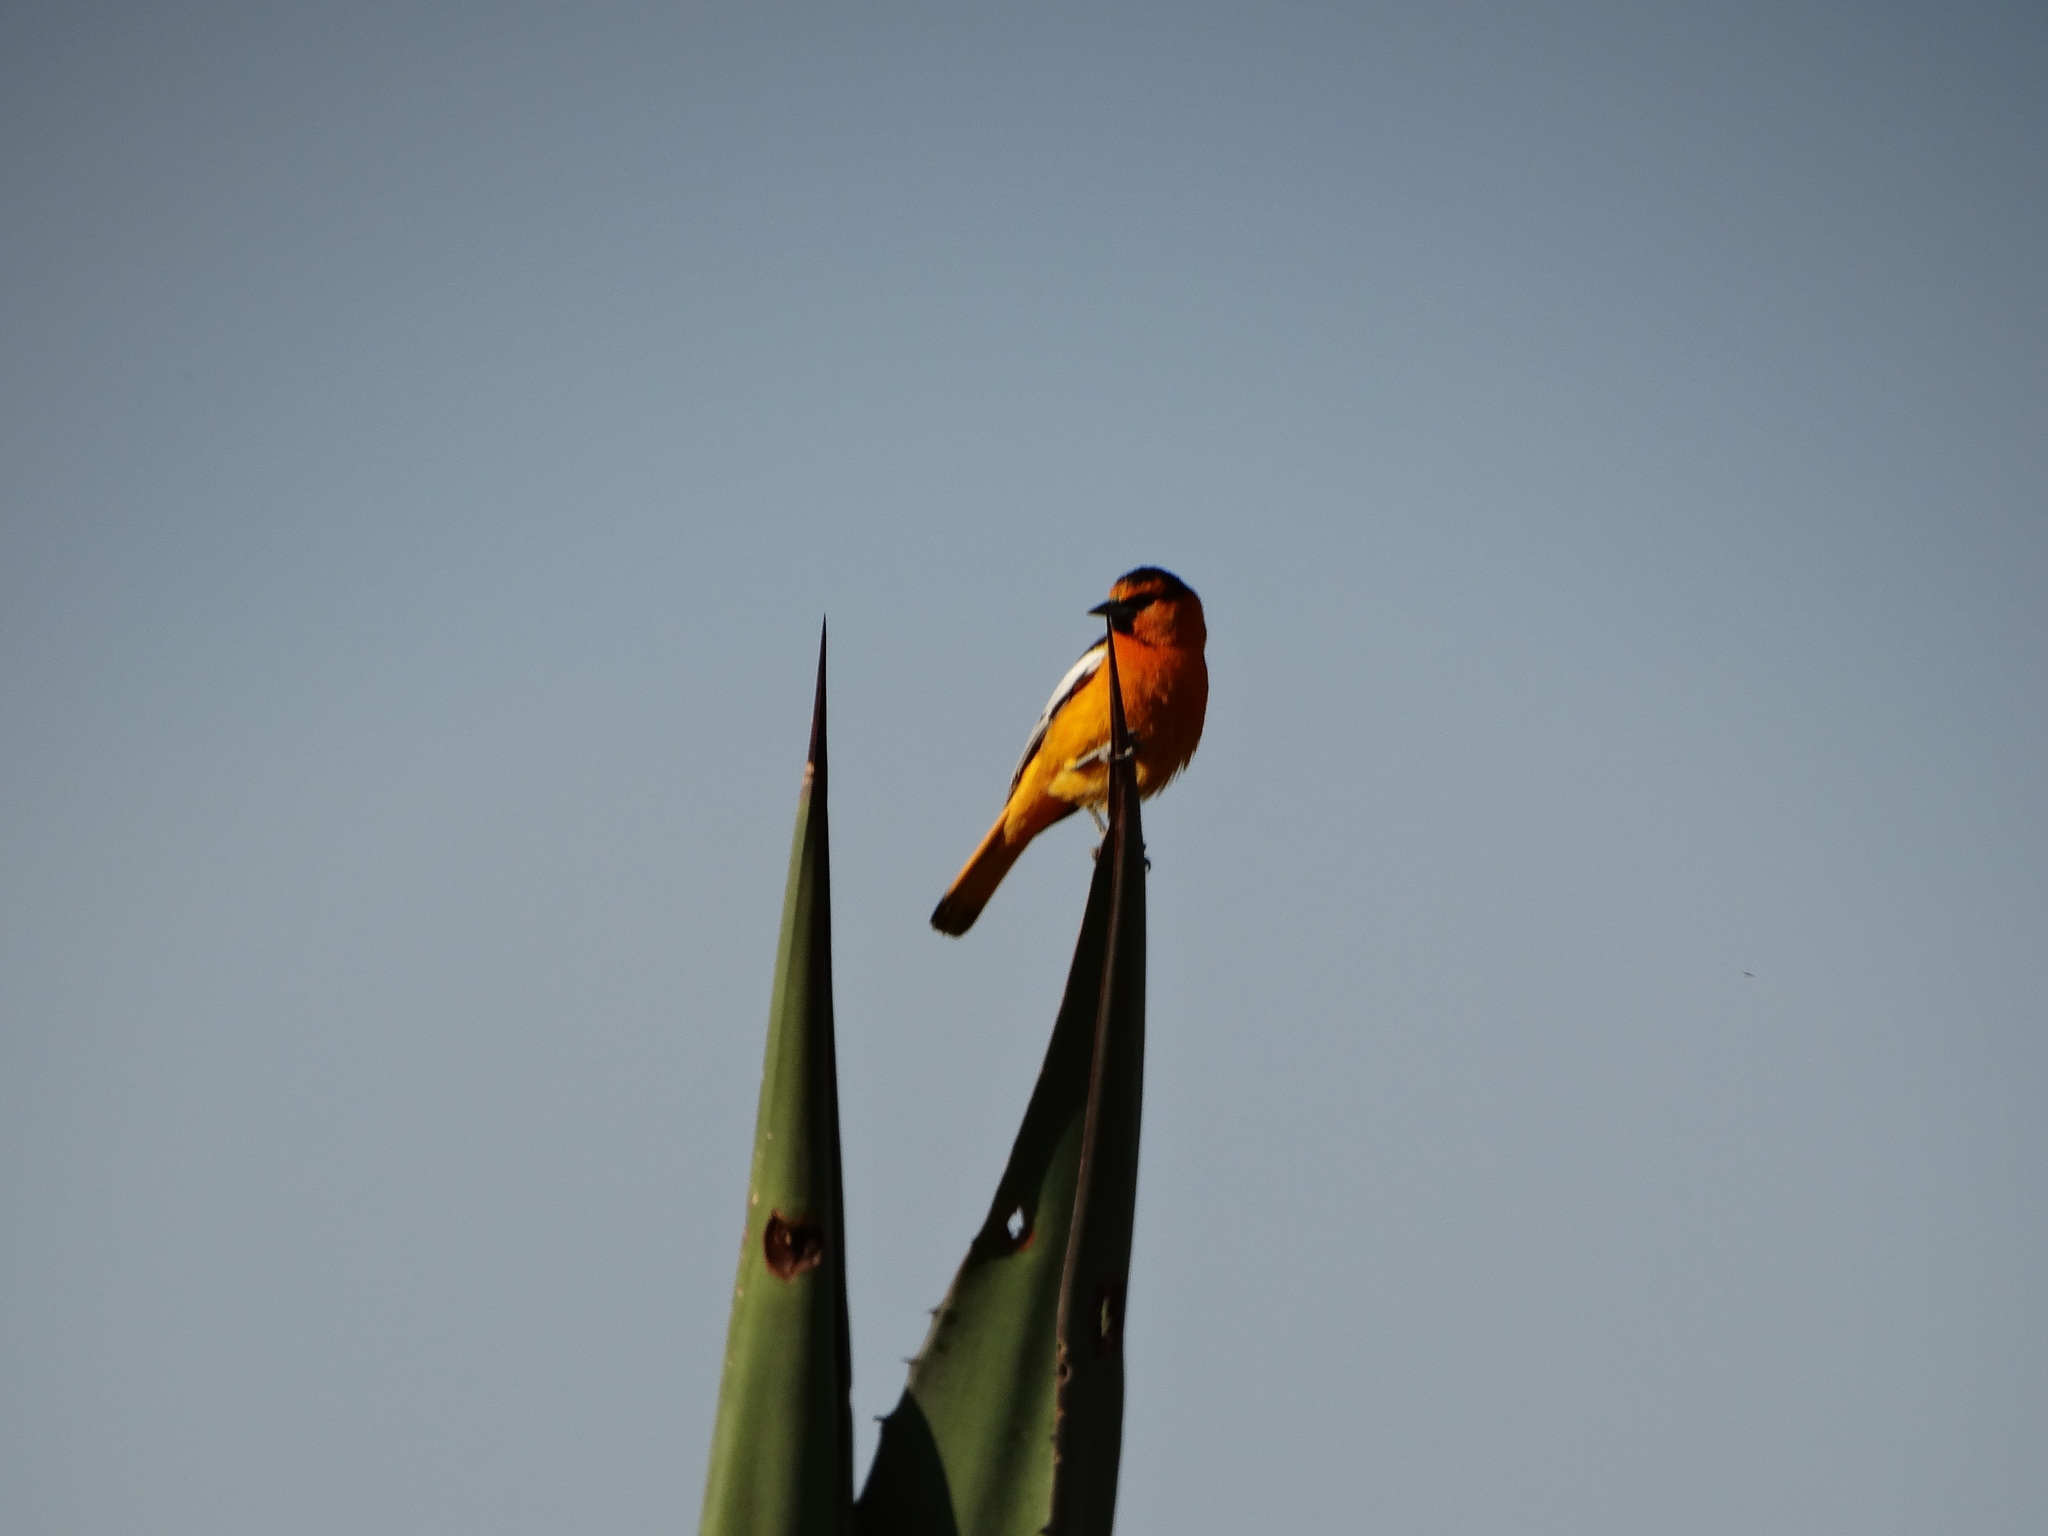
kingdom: Animalia
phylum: Chordata
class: Aves
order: Passeriformes
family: Icteridae
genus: Icterus
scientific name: Icterus bullockii
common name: Bullock's oriole
